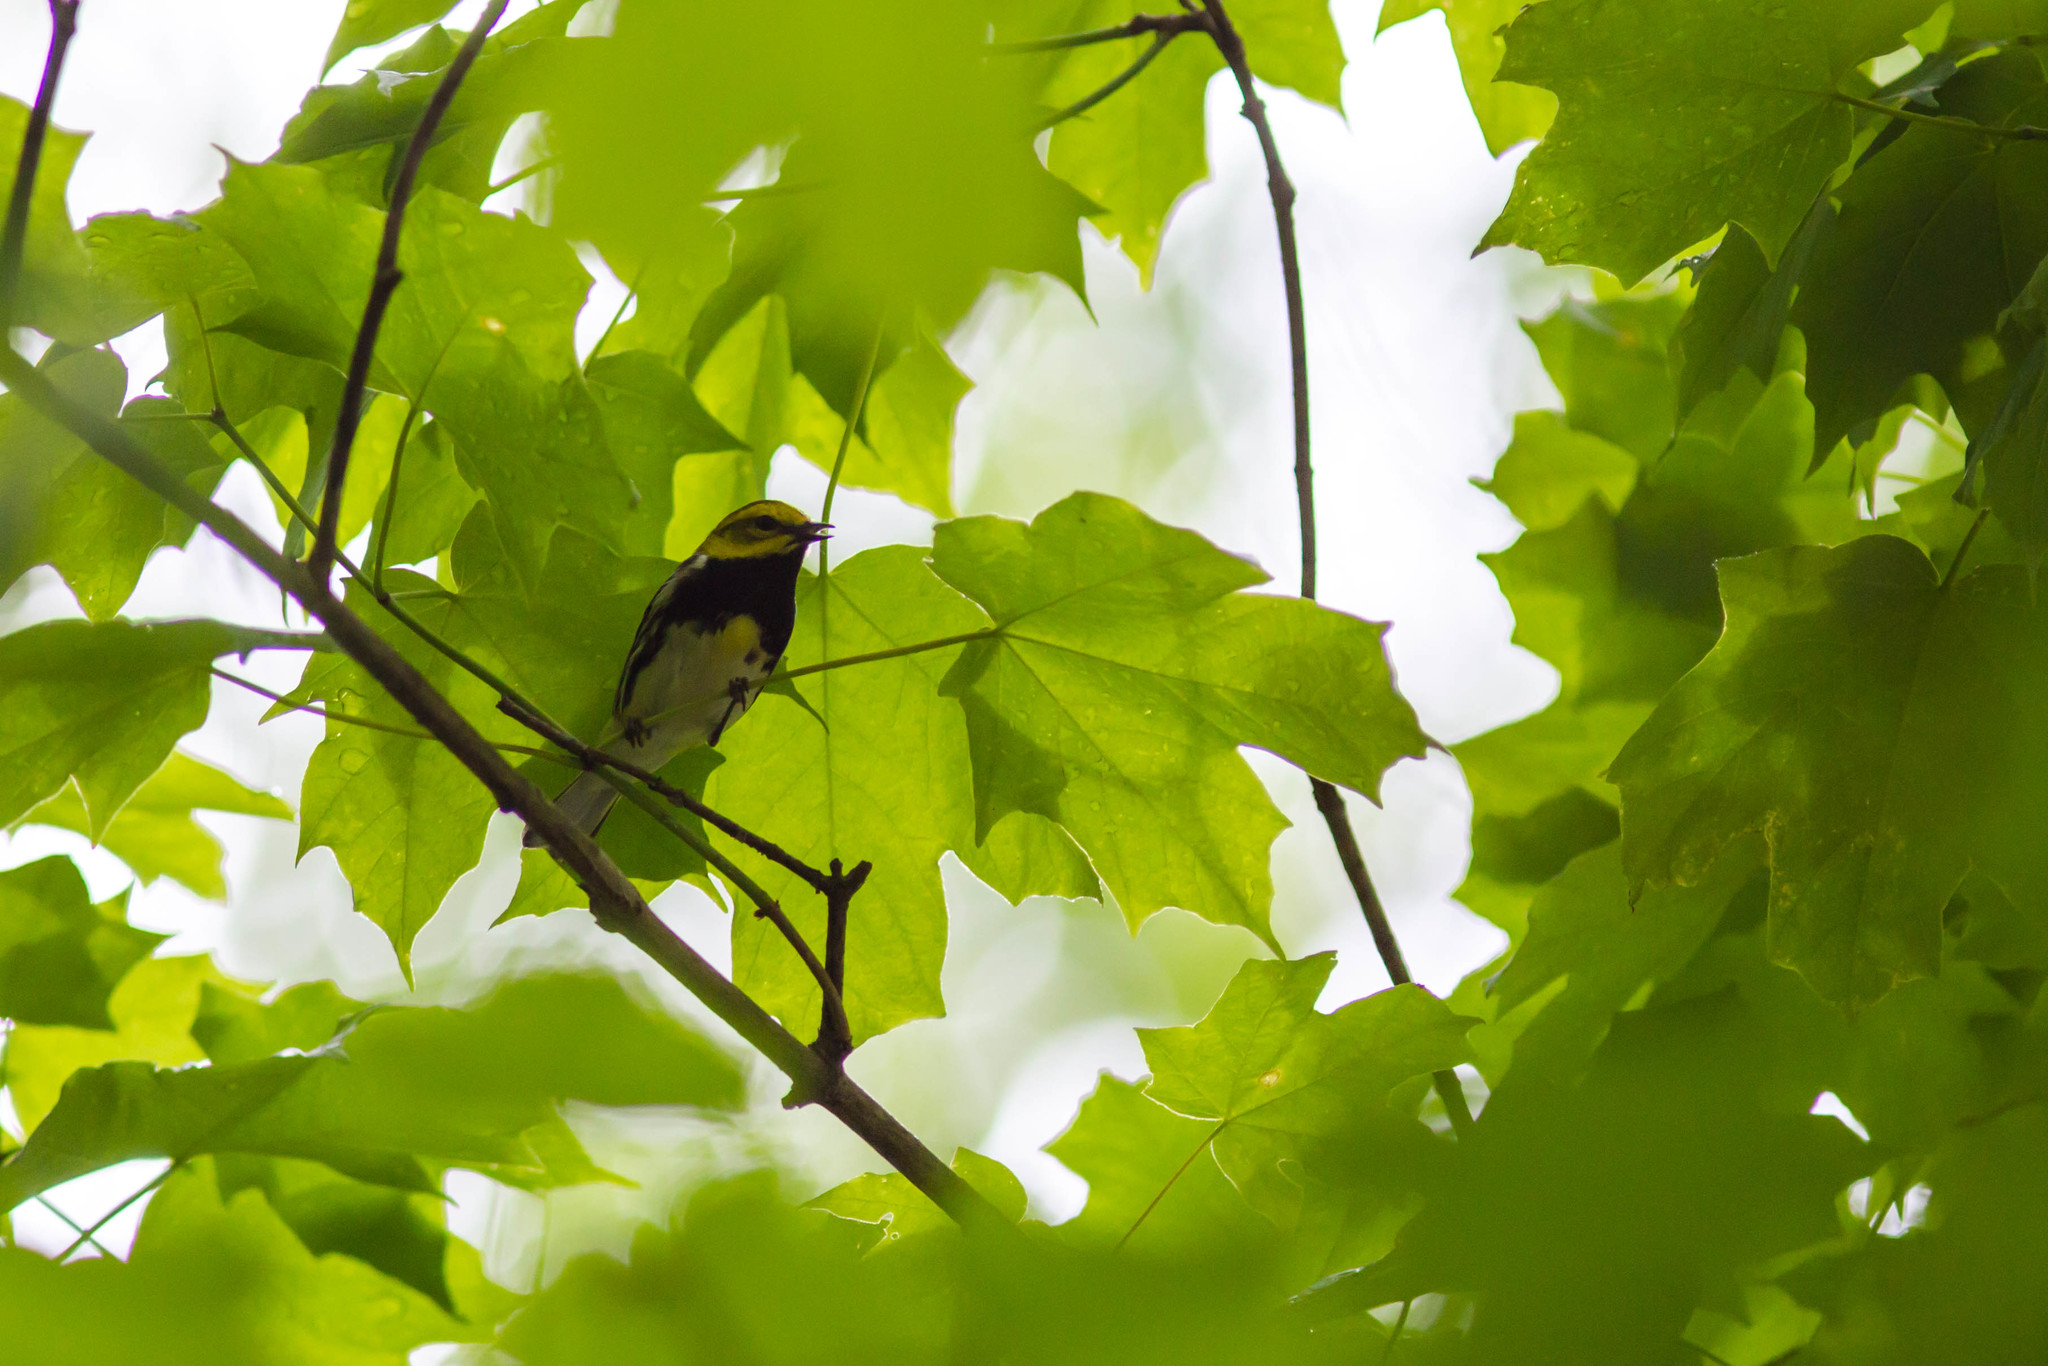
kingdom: Animalia
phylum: Chordata
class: Aves
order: Passeriformes
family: Parulidae
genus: Setophaga
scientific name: Setophaga virens
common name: Black-throated green warbler
